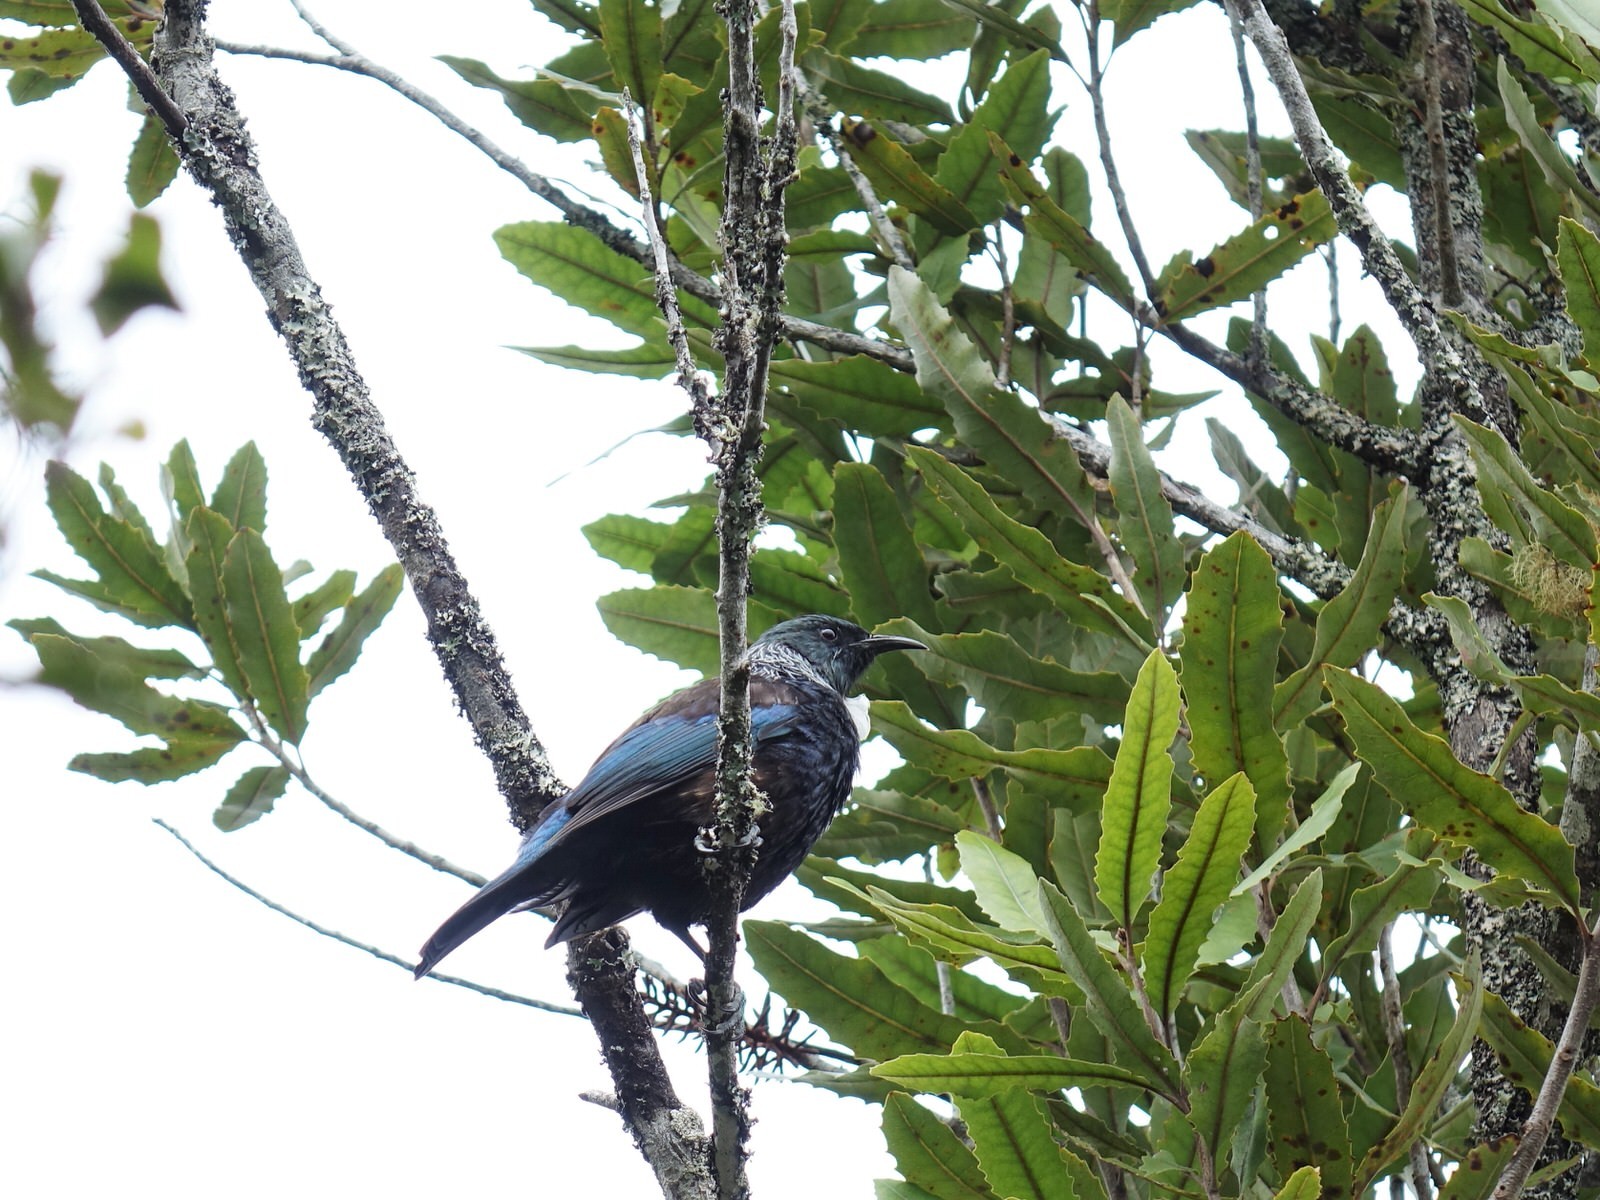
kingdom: Animalia
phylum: Chordata
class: Aves
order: Passeriformes
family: Meliphagidae
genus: Prosthemadera
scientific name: Prosthemadera novaeseelandiae
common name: Tui
